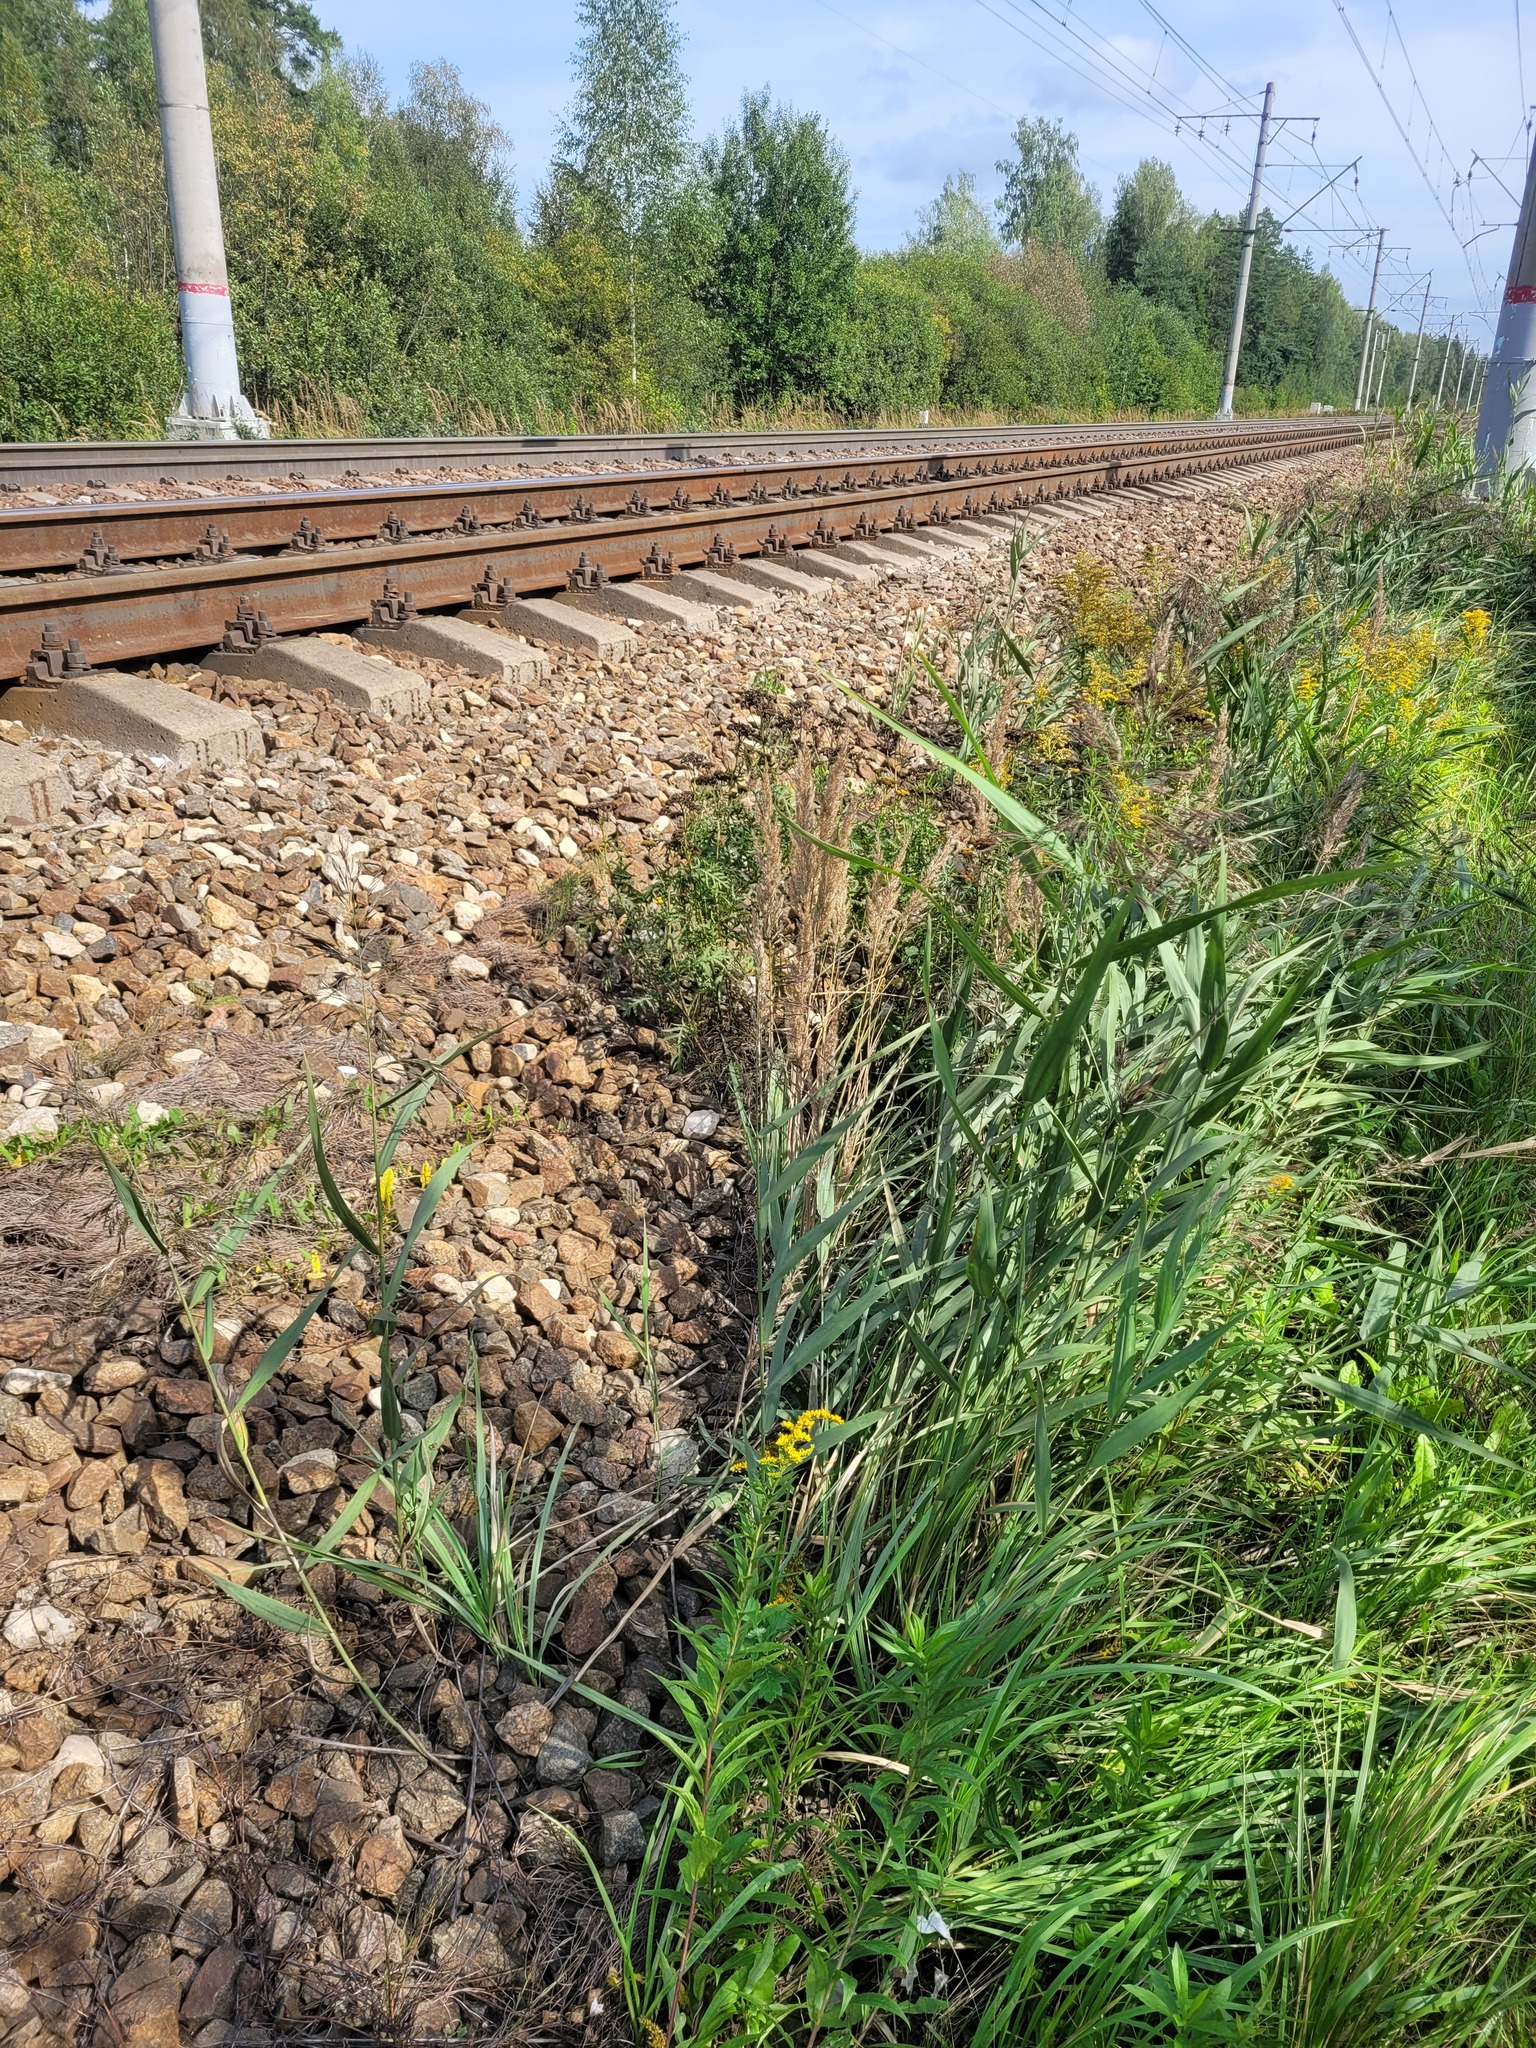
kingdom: Plantae
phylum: Tracheophyta
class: Liliopsida
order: Poales
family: Poaceae
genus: Phragmites
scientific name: Phragmites australis
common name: Common reed
